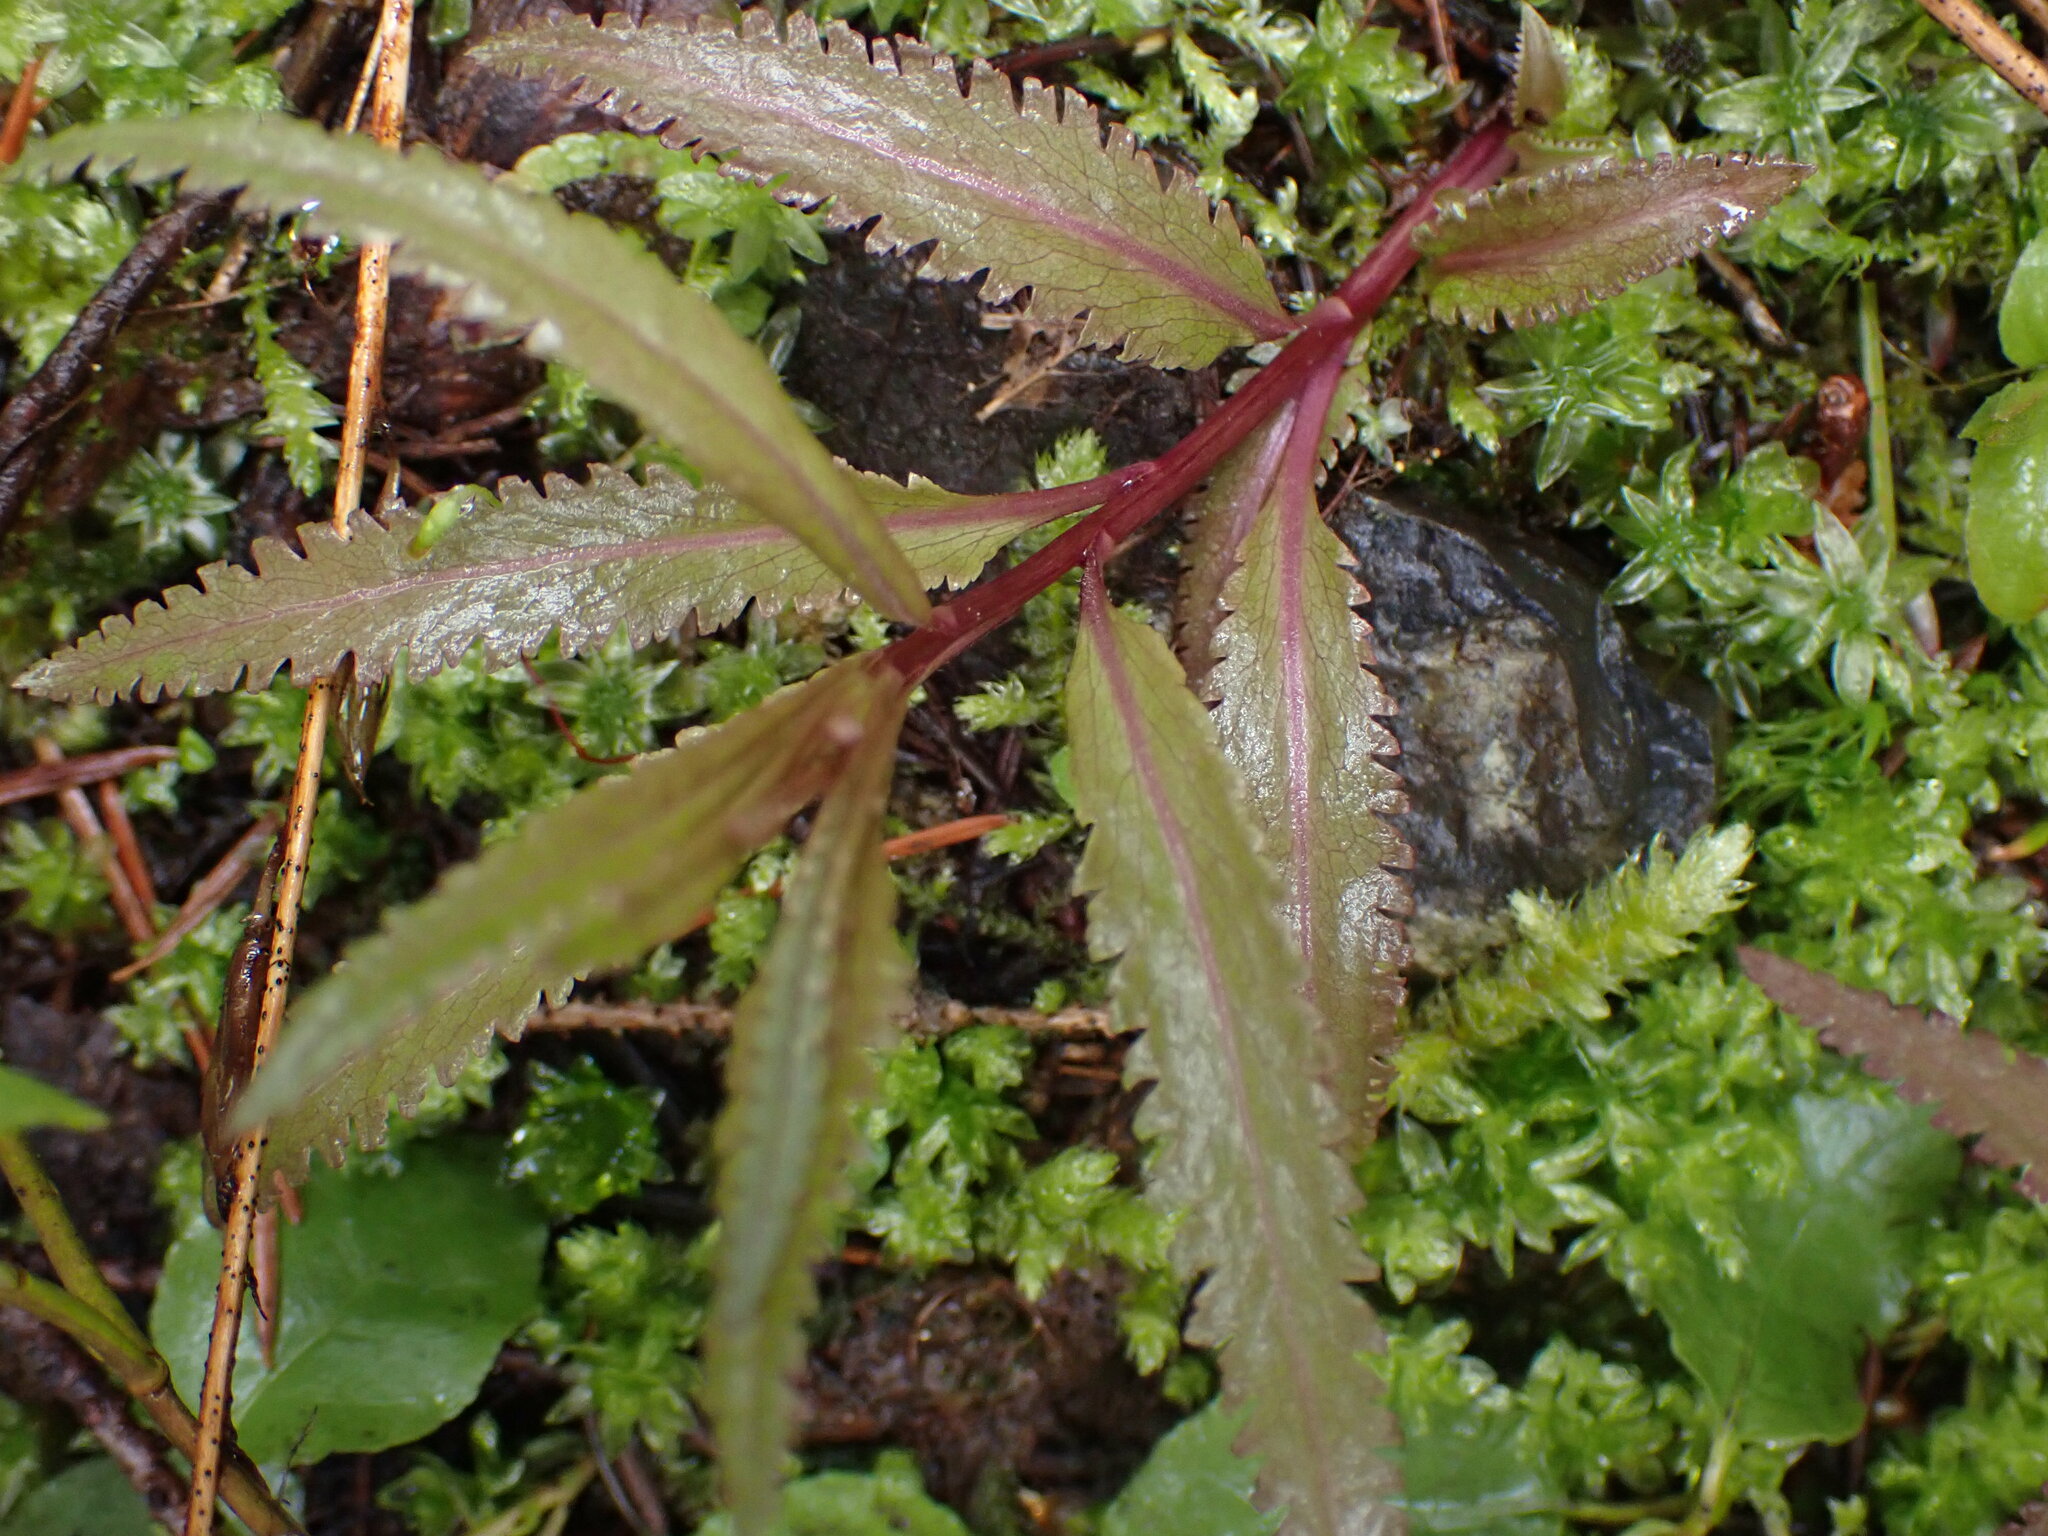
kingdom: Plantae
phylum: Tracheophyta
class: Magnoliopsida
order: Lamiales
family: Orobanchaceae
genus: Pedicularis
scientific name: Pedicularis racemosa
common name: Leafy lousewort
